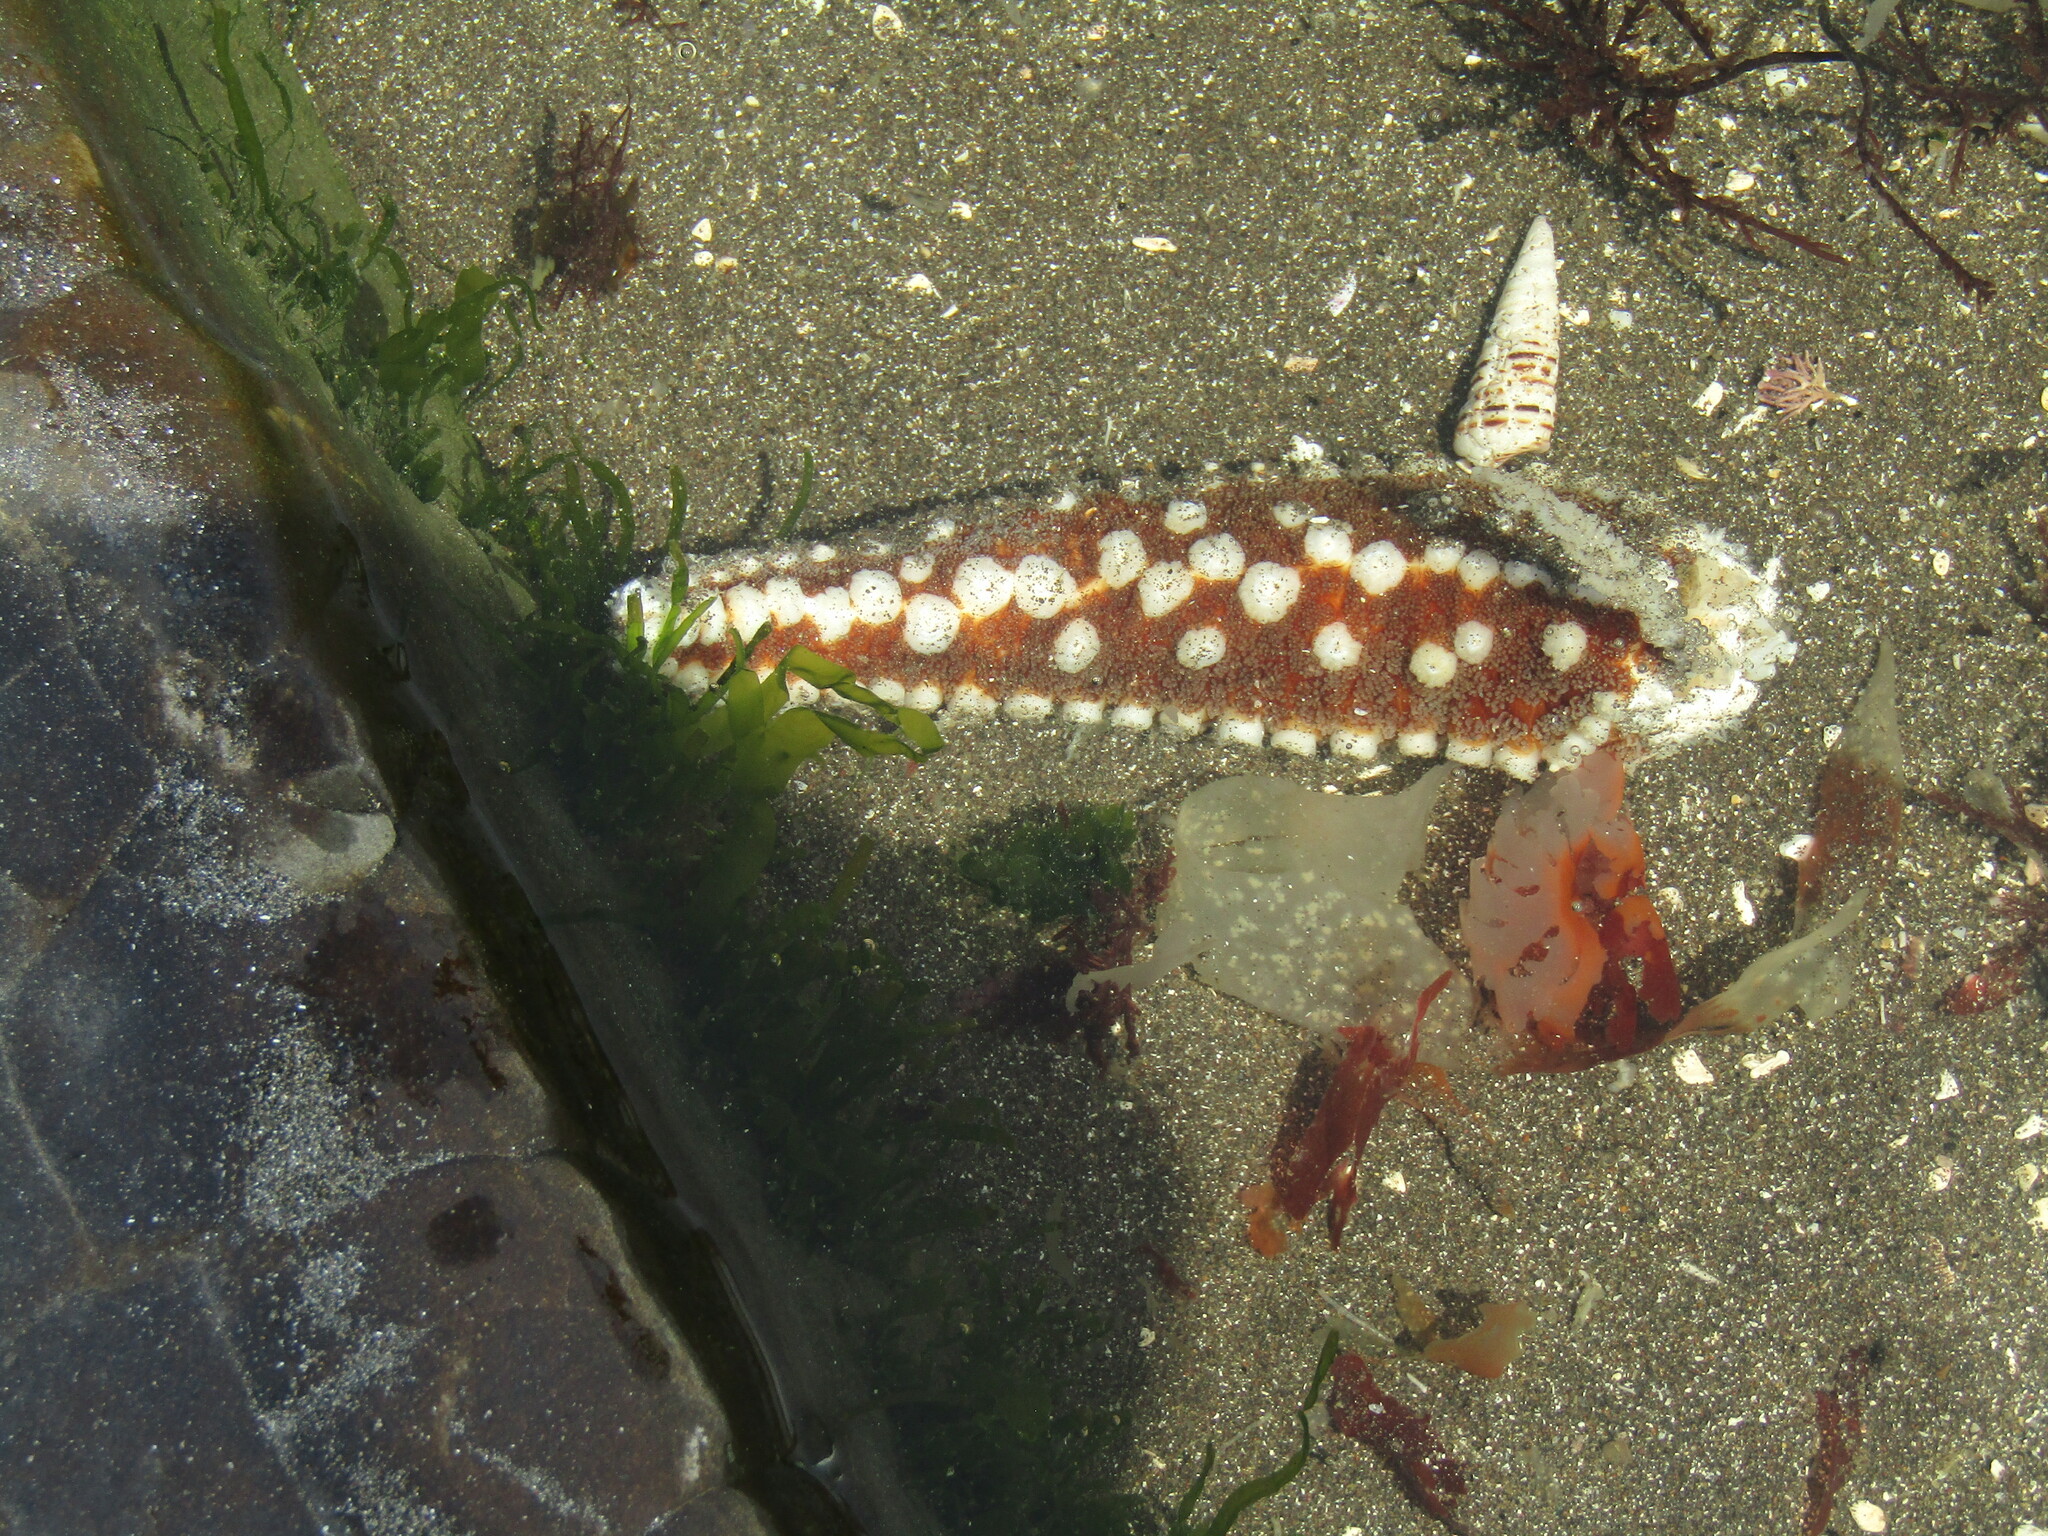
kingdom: Animalia
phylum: Echinodermata
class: Asteroidea
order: Forcipulatida
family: Asteriidae
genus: Meyenaster
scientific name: Meyenaster gelatinosus
